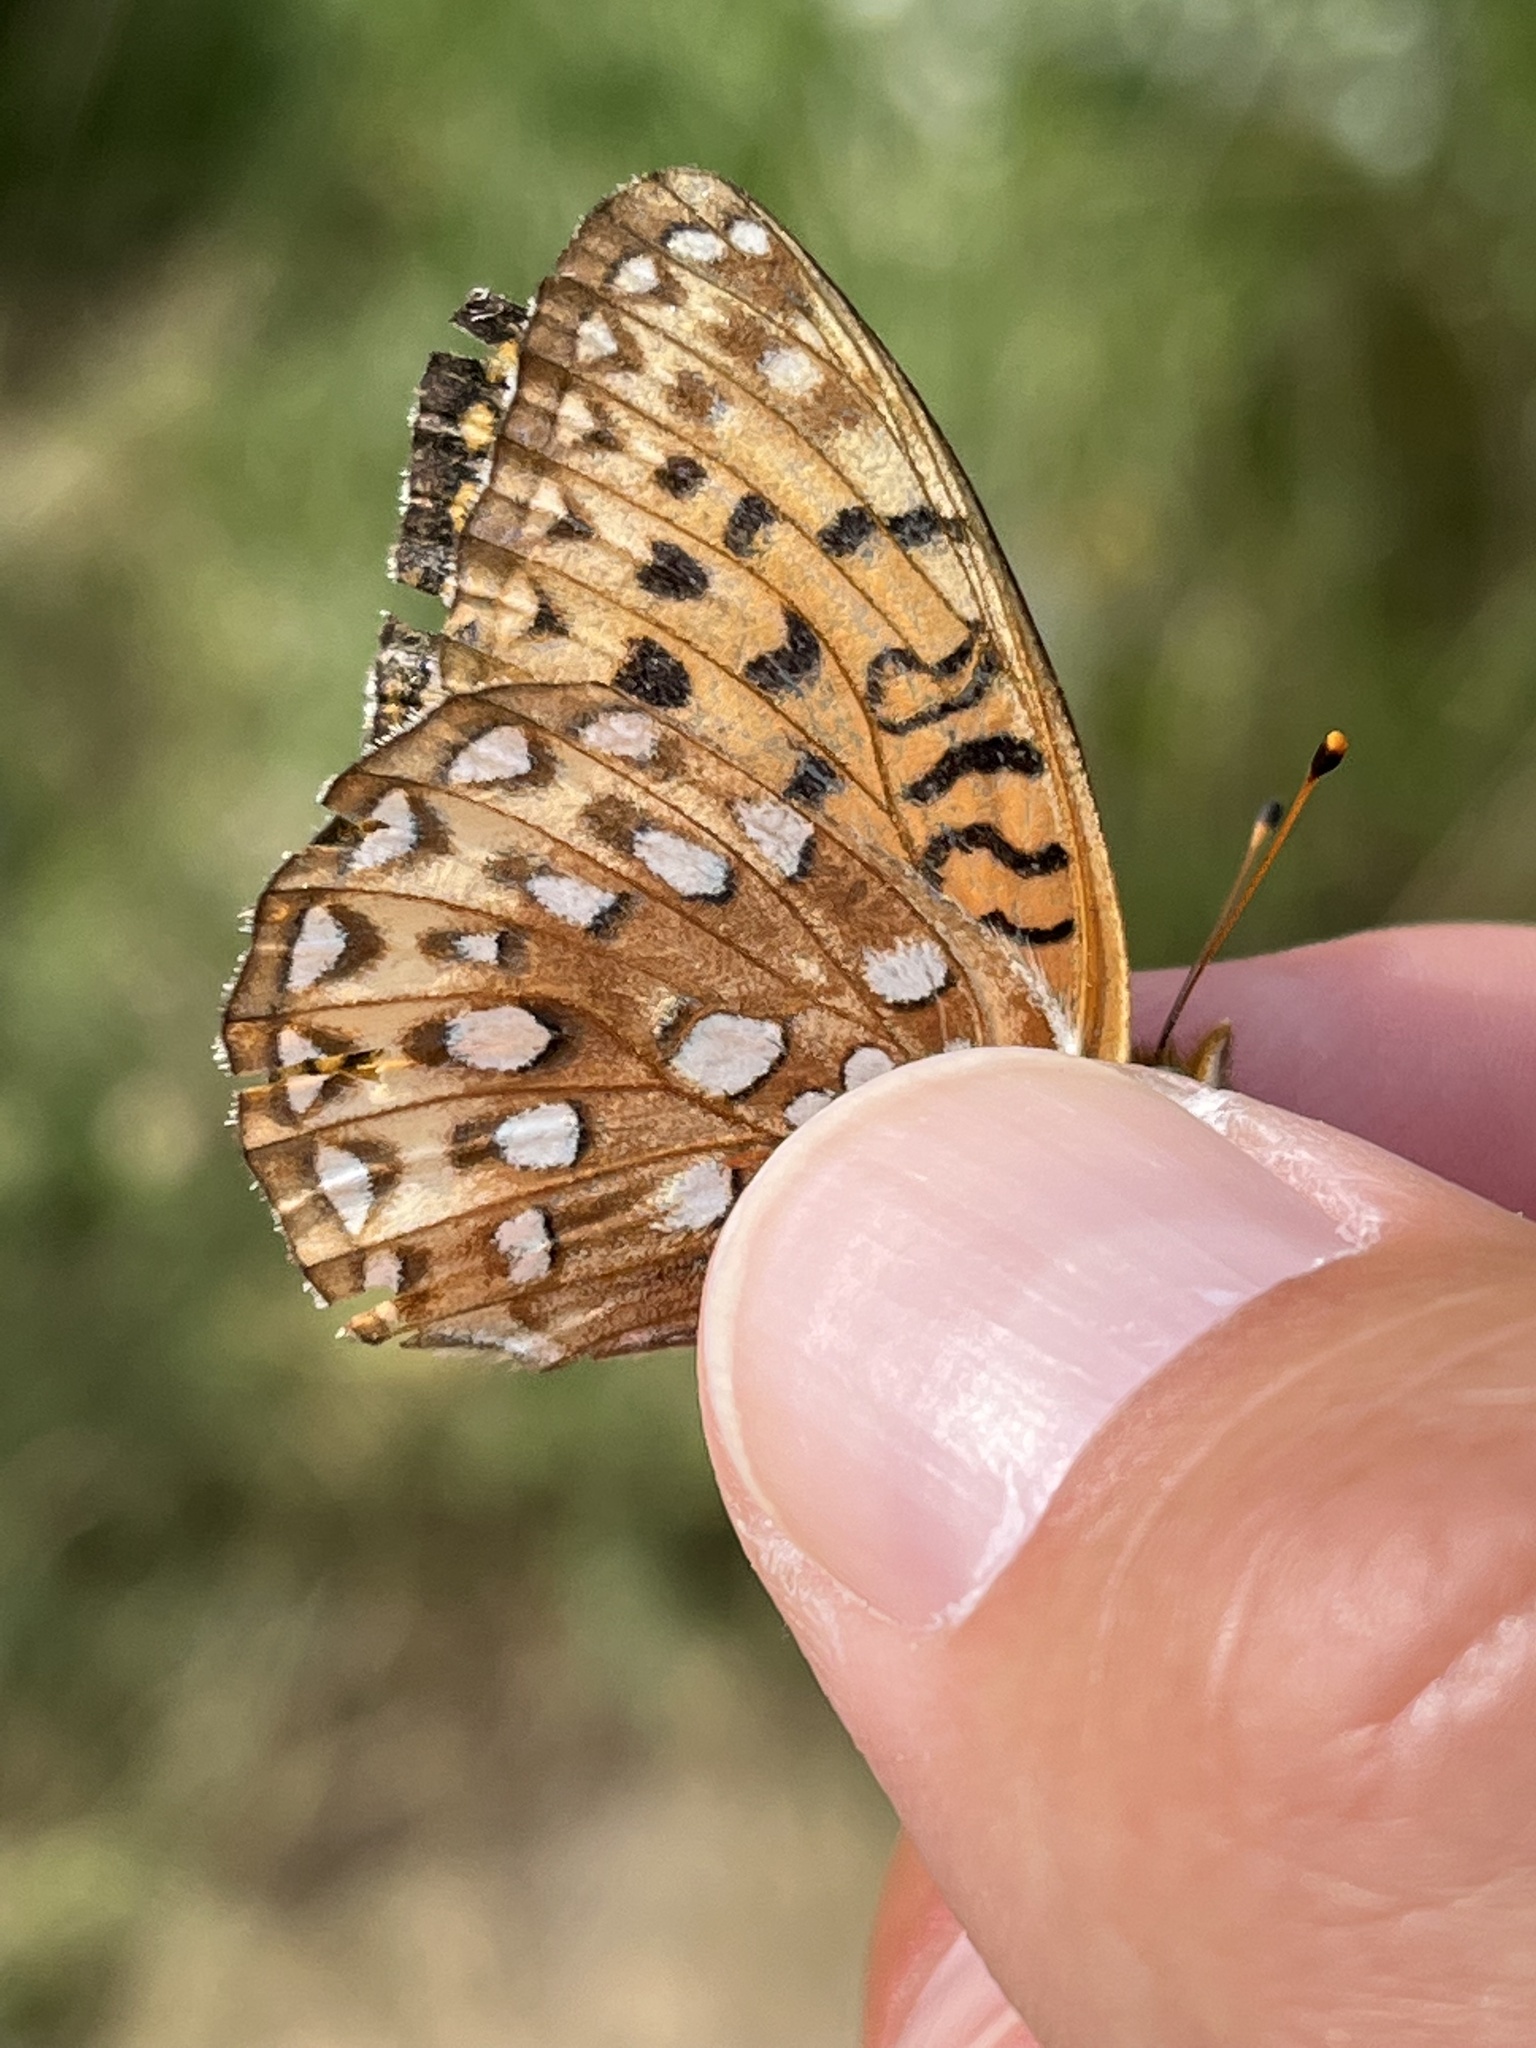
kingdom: Animalia
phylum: Arthropoda
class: Insecta
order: Lepidoptera
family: Nymphalidae
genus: Speyeria
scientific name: Speyeria atlantis
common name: Atlantis fritillary
